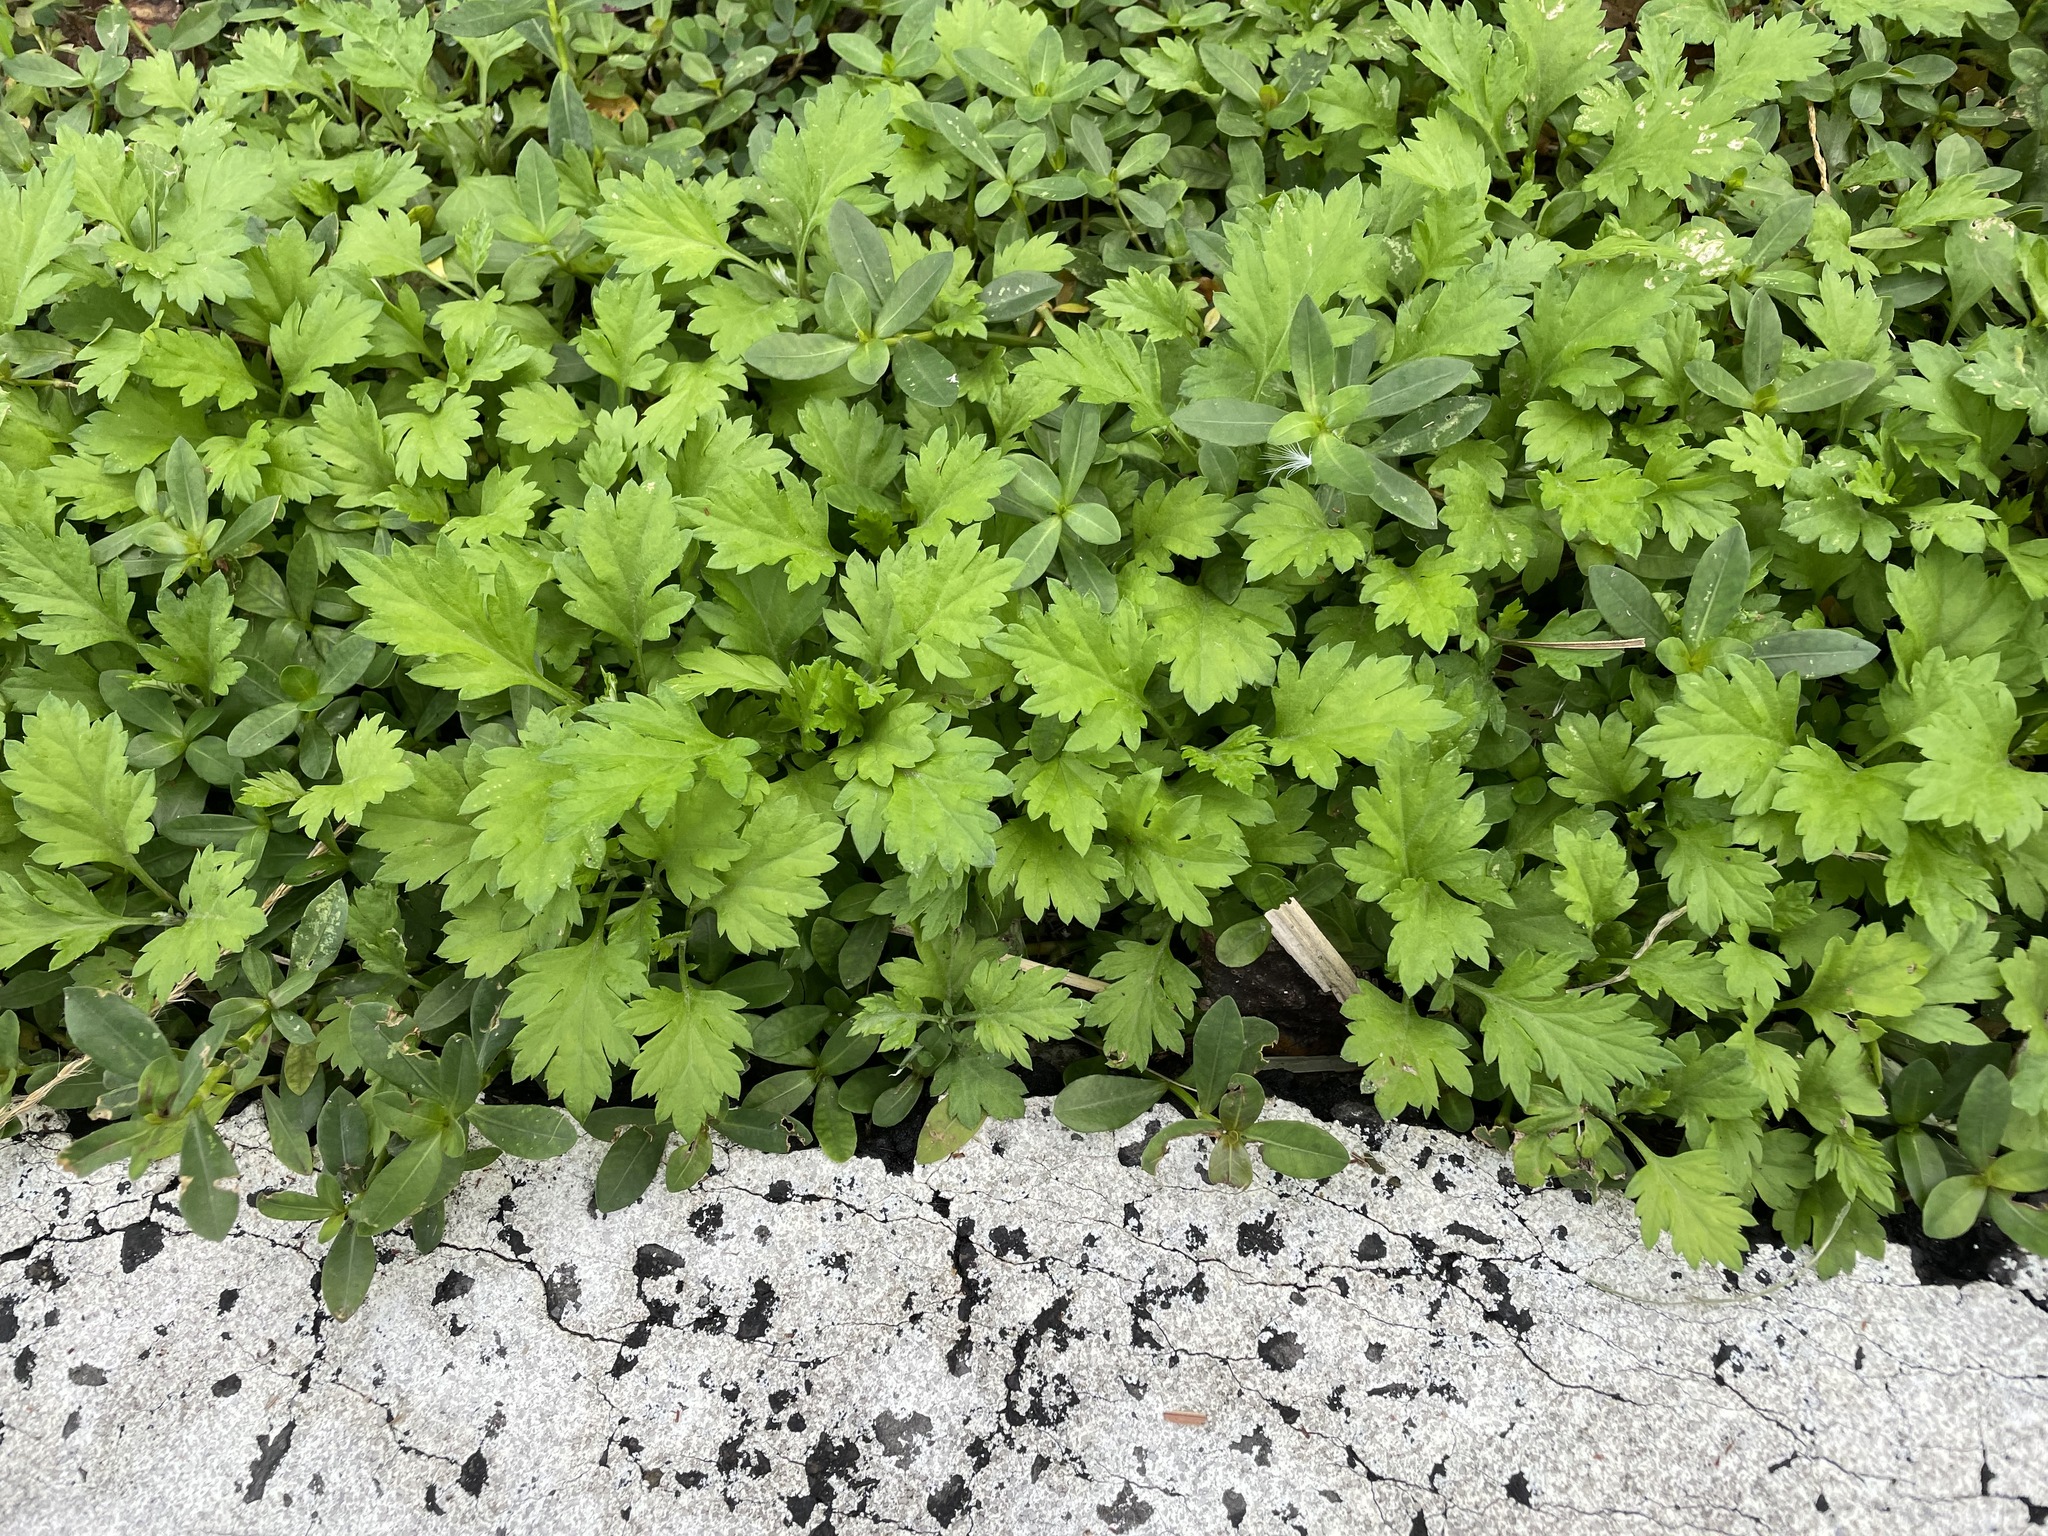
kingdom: Plantae
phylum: Tracheophyta
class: Magnoliopsida
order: Asterales
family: Asteraceae
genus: Artemisia
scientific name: Artemisia indica
